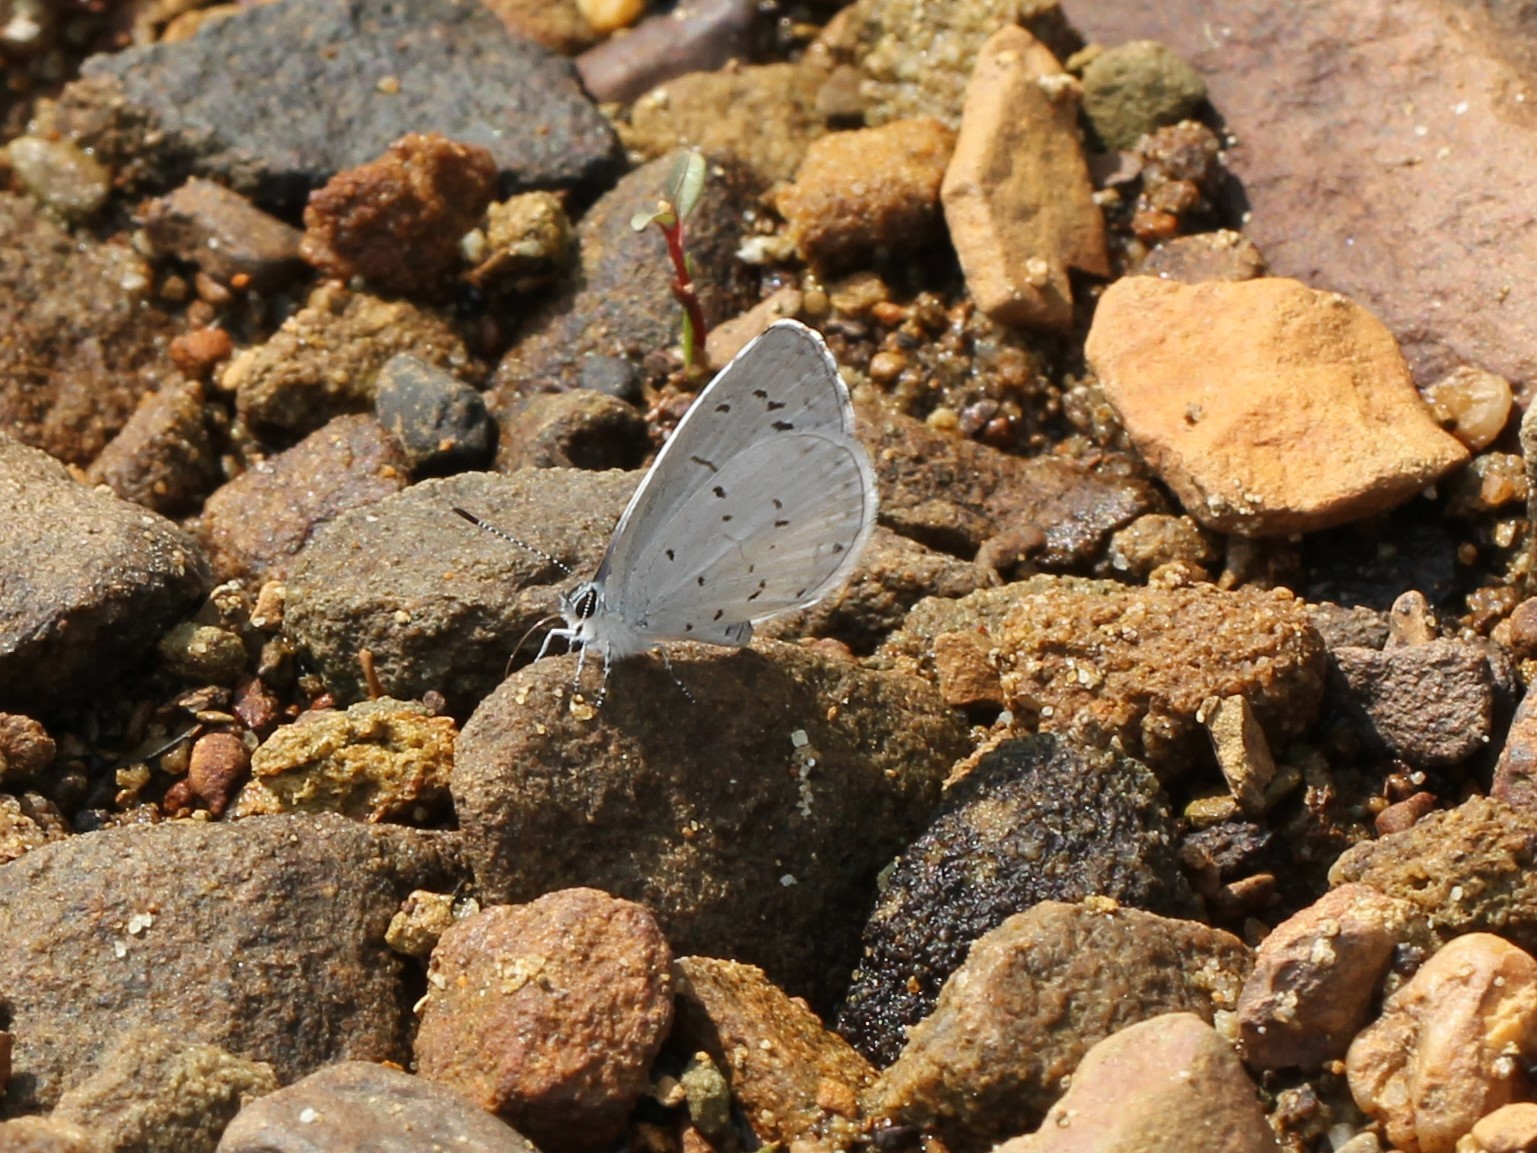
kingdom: Animalia
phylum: Arthropoda
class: Insecta
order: Lepidoptera
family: Lycaenidae
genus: Cyaniris
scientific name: Cyaniris neglecta
